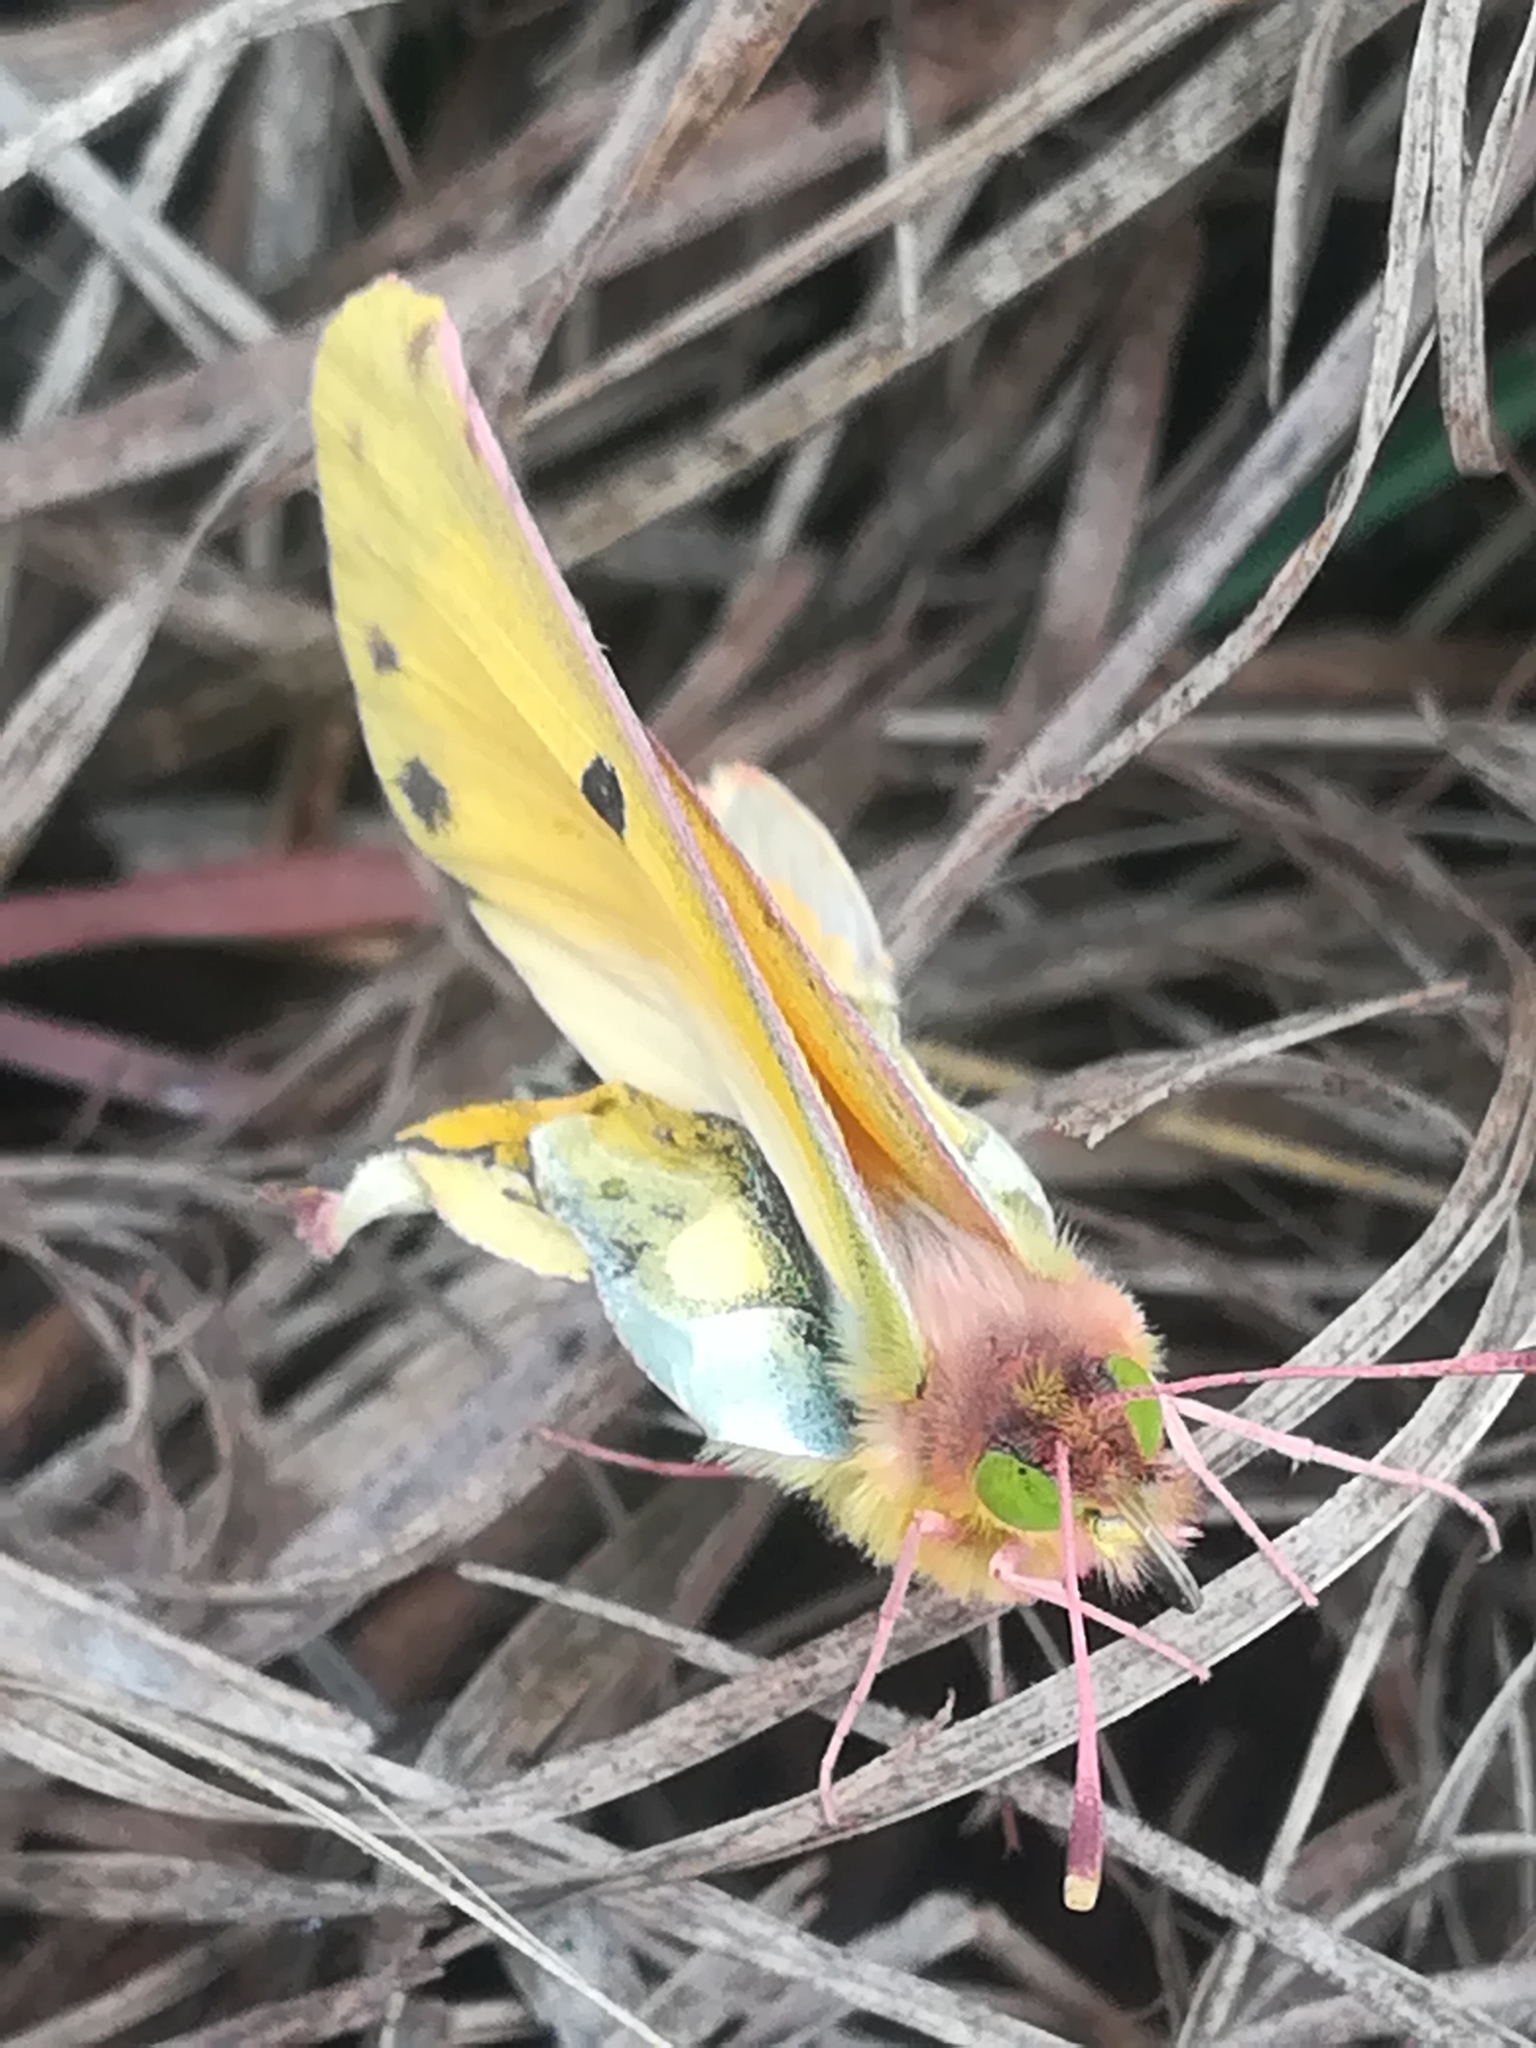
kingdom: Animalia
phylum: Arthropoda
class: Insecta
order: Lepidoptera
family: Pieridae
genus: Colias
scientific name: Colias croceus
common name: Clouded yellow
